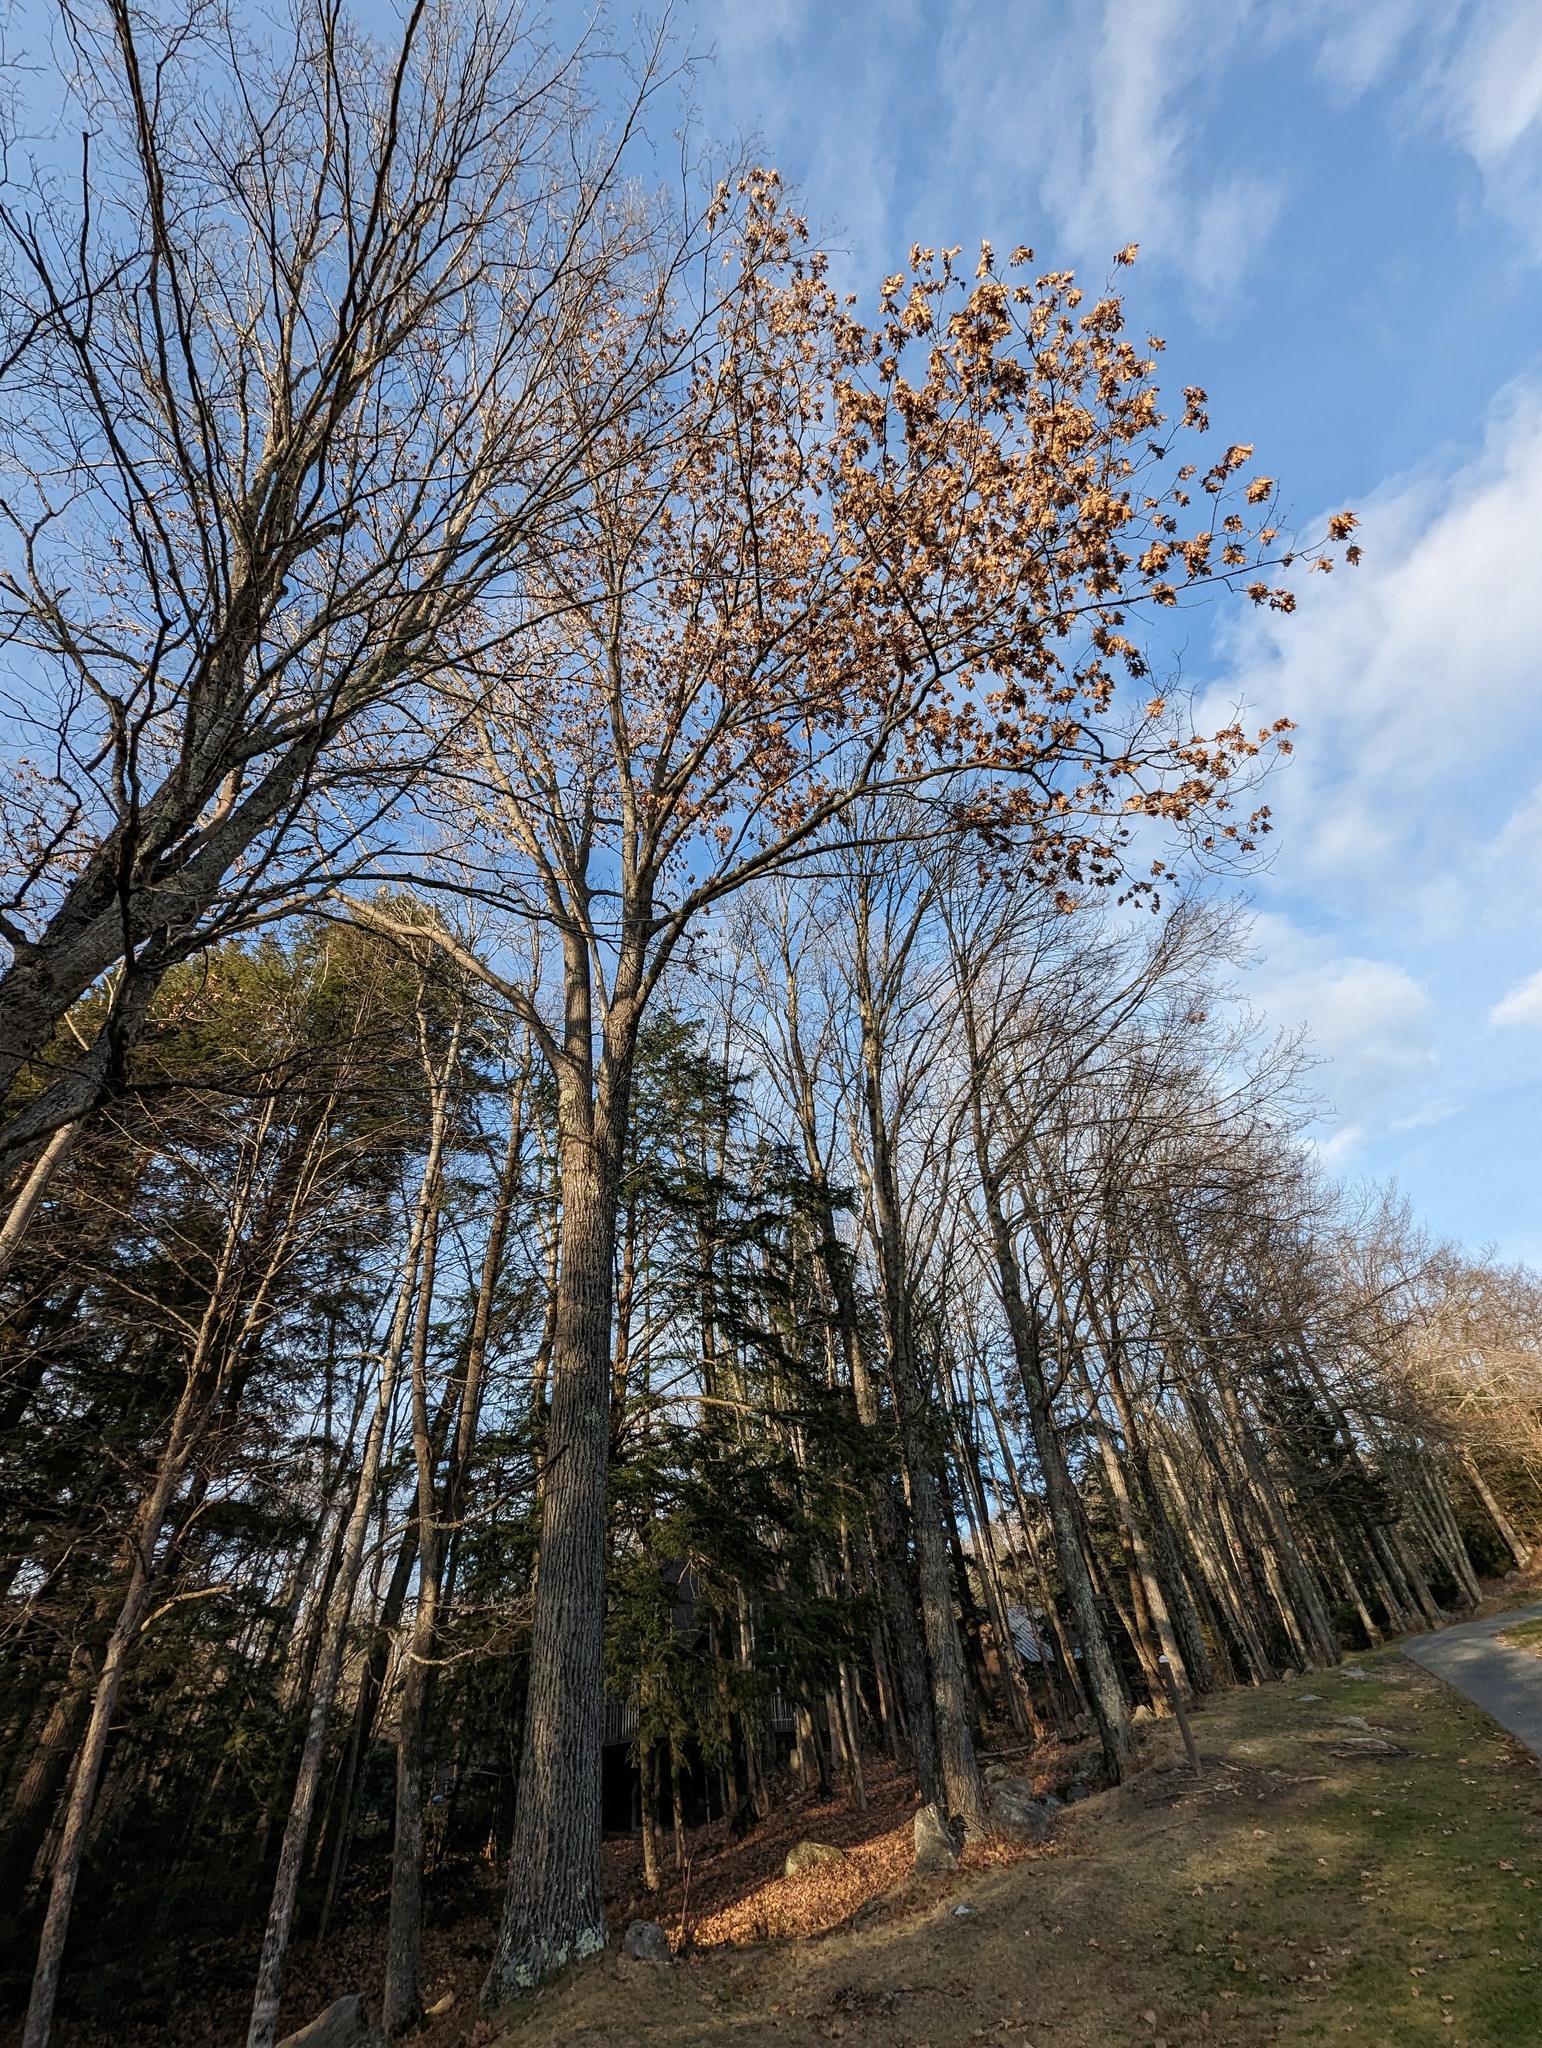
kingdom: Plantae
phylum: Tracheophyta
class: Magnoliopsida
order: Fagales
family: Fagaceae
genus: Quercus
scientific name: Quercus rubra
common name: Red oak
